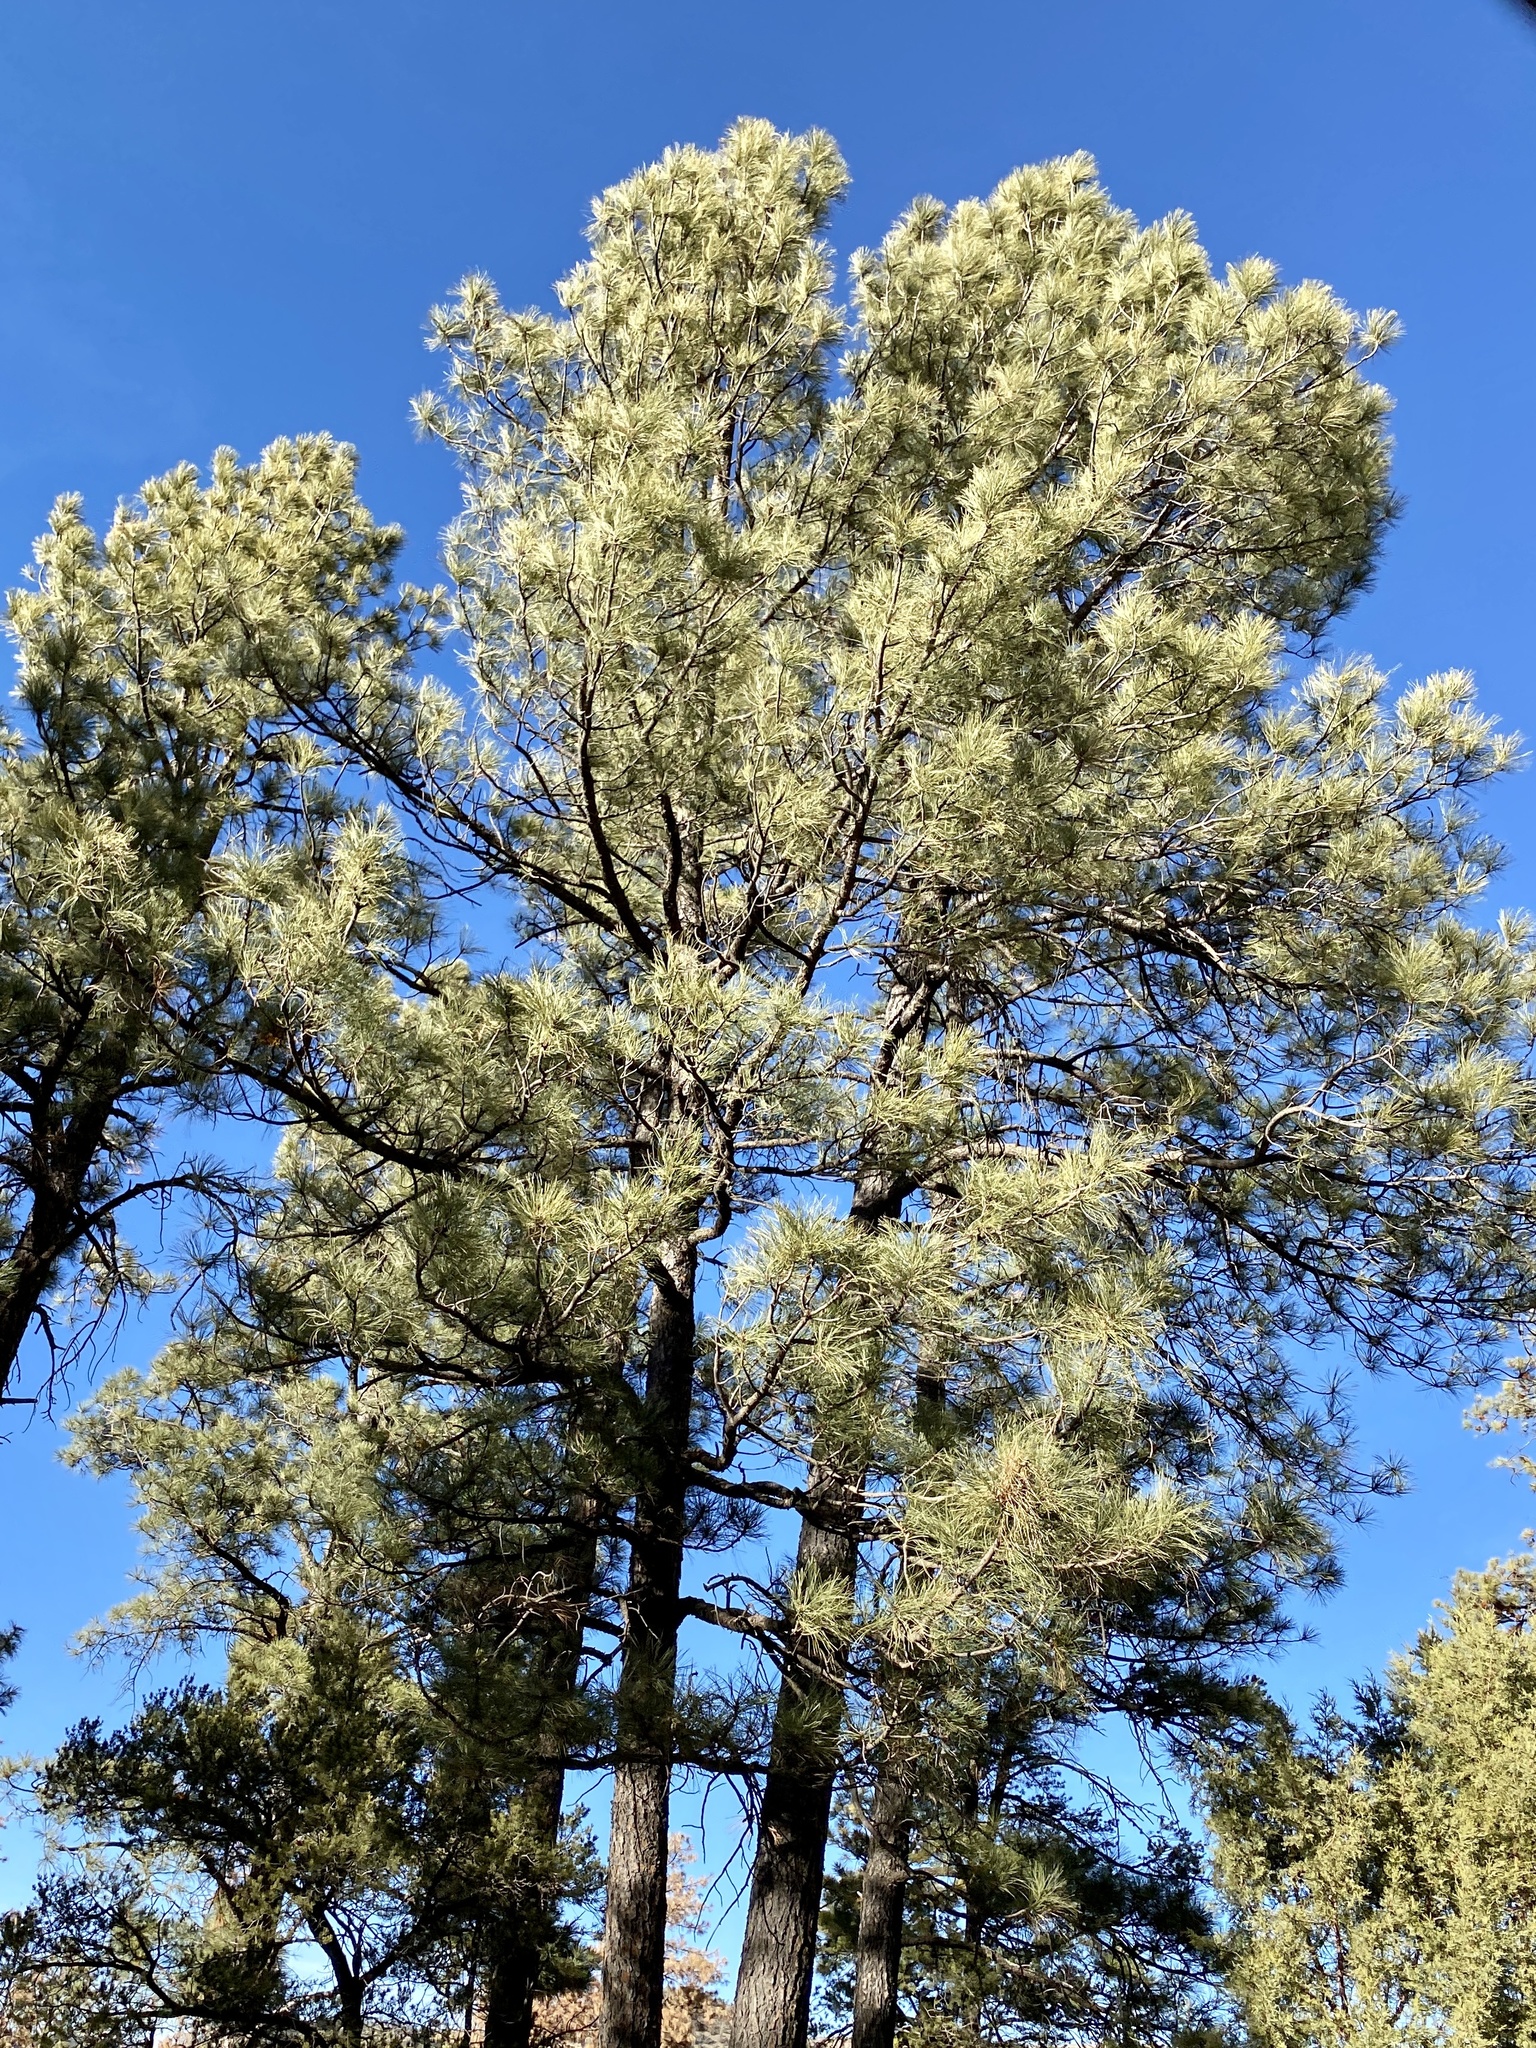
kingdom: Plantae
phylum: Tracheophyta
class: Pinopsida
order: Pinales
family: Pinaceae
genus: Pinus
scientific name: Pinus ponderosa
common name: Western yellow-pine
